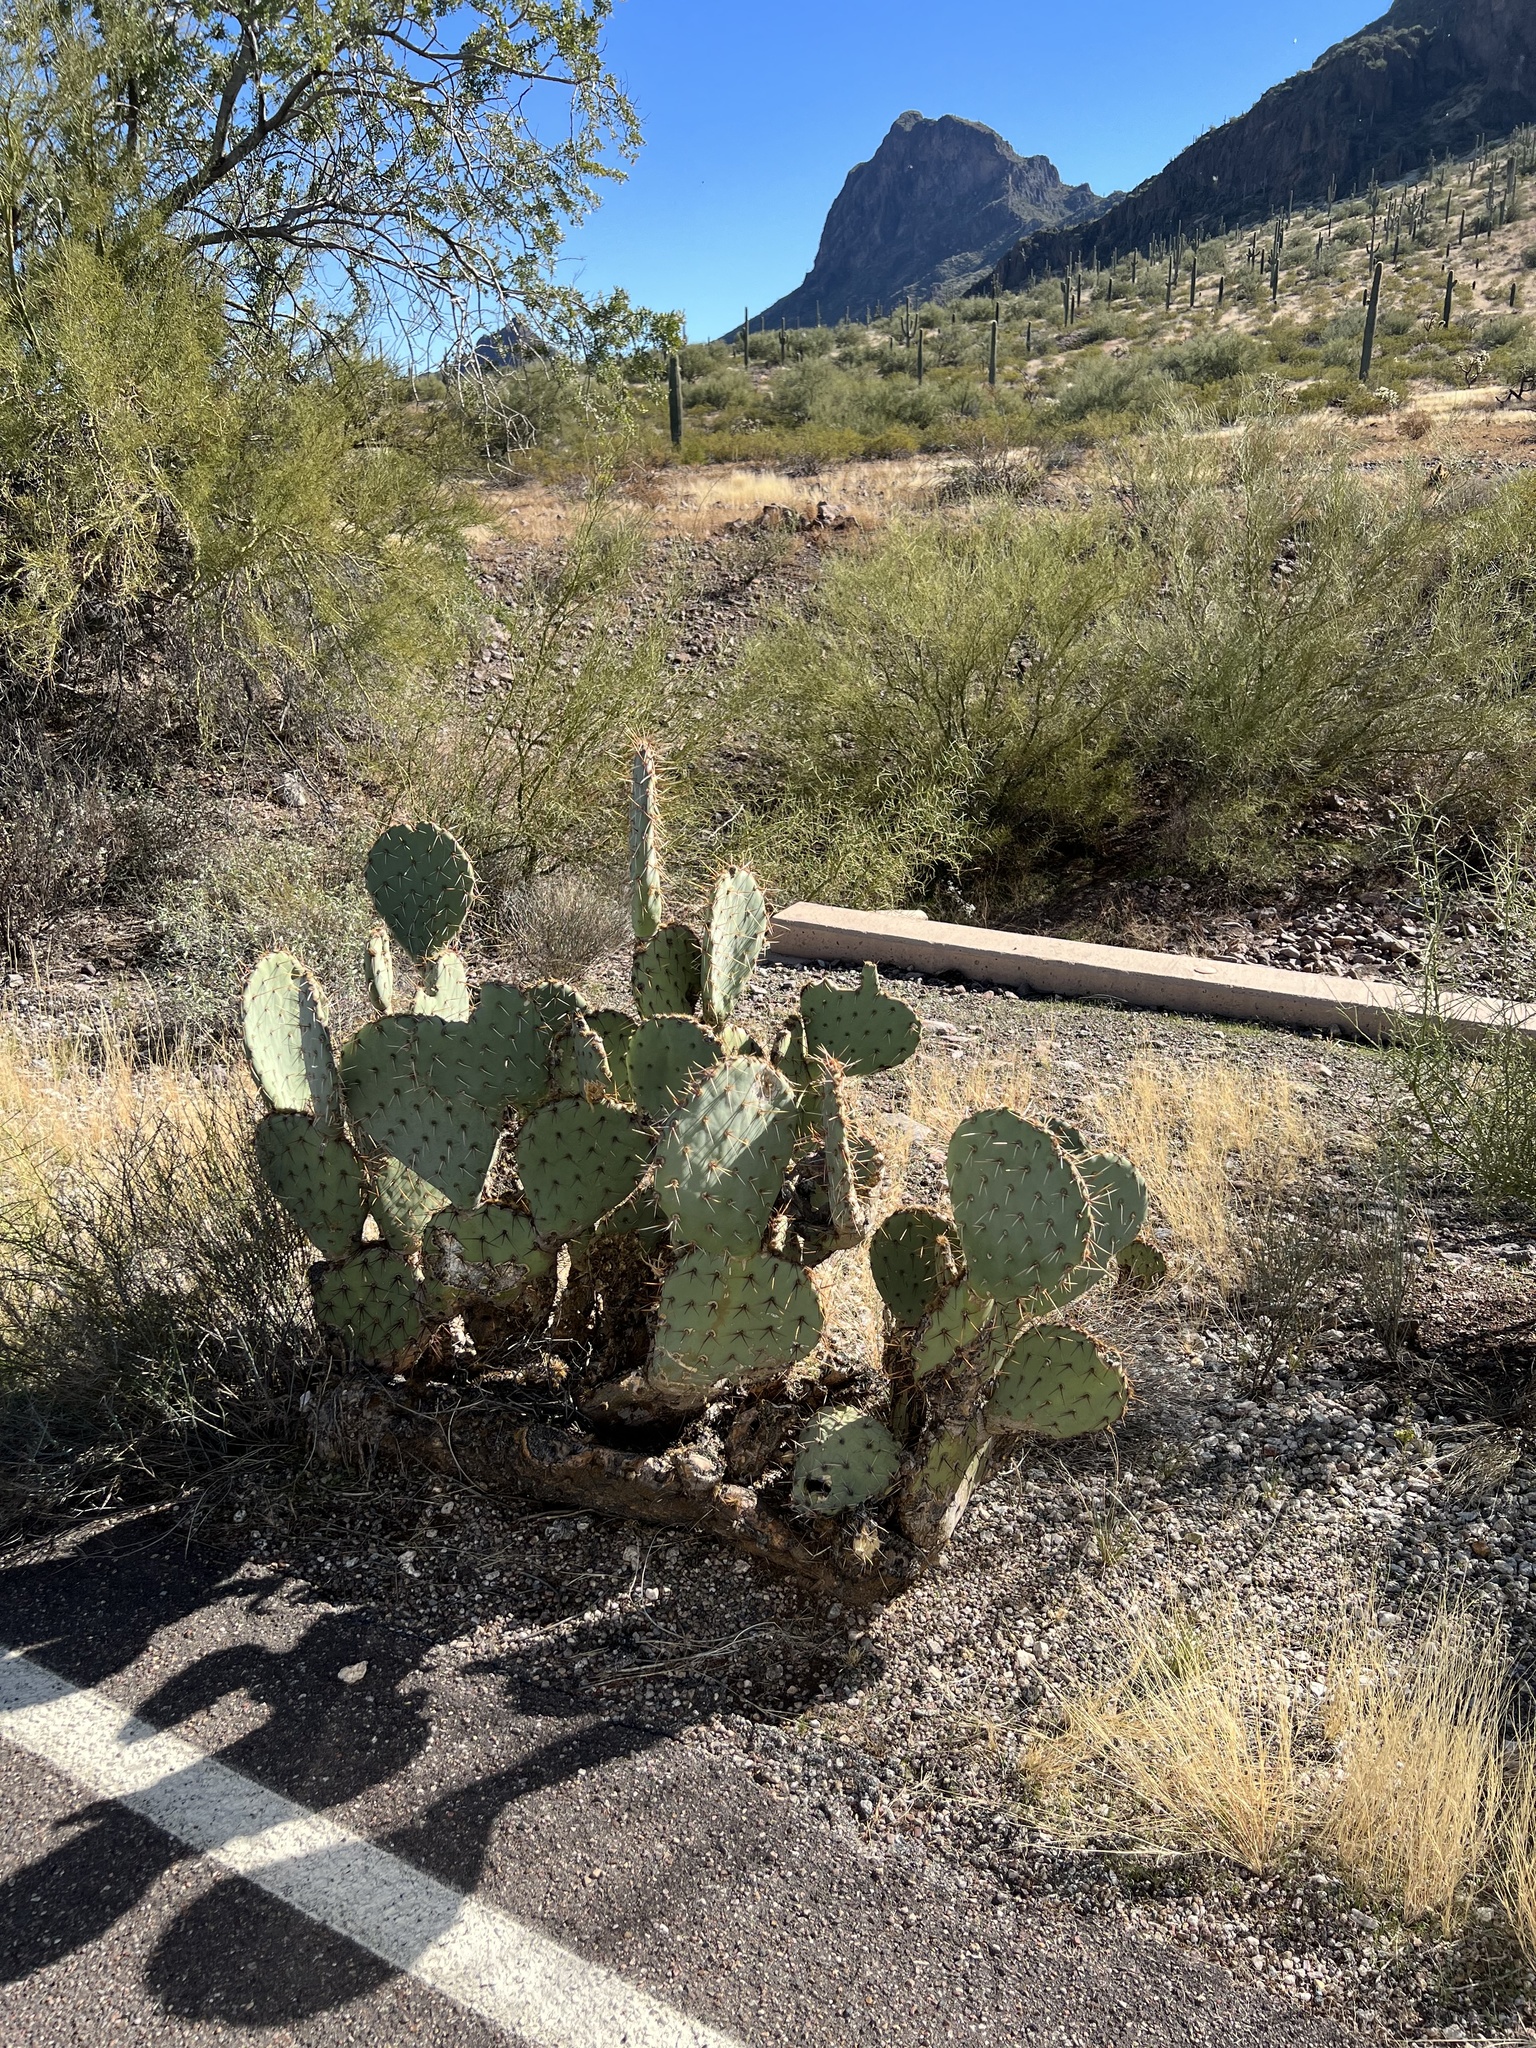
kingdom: Plantae
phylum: Tracheophyta
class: Magnoliopsida
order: Caryophyllales
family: Cactaceae
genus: Opuntia
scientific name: Opuntia engelmannii
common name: Cactus-apple
